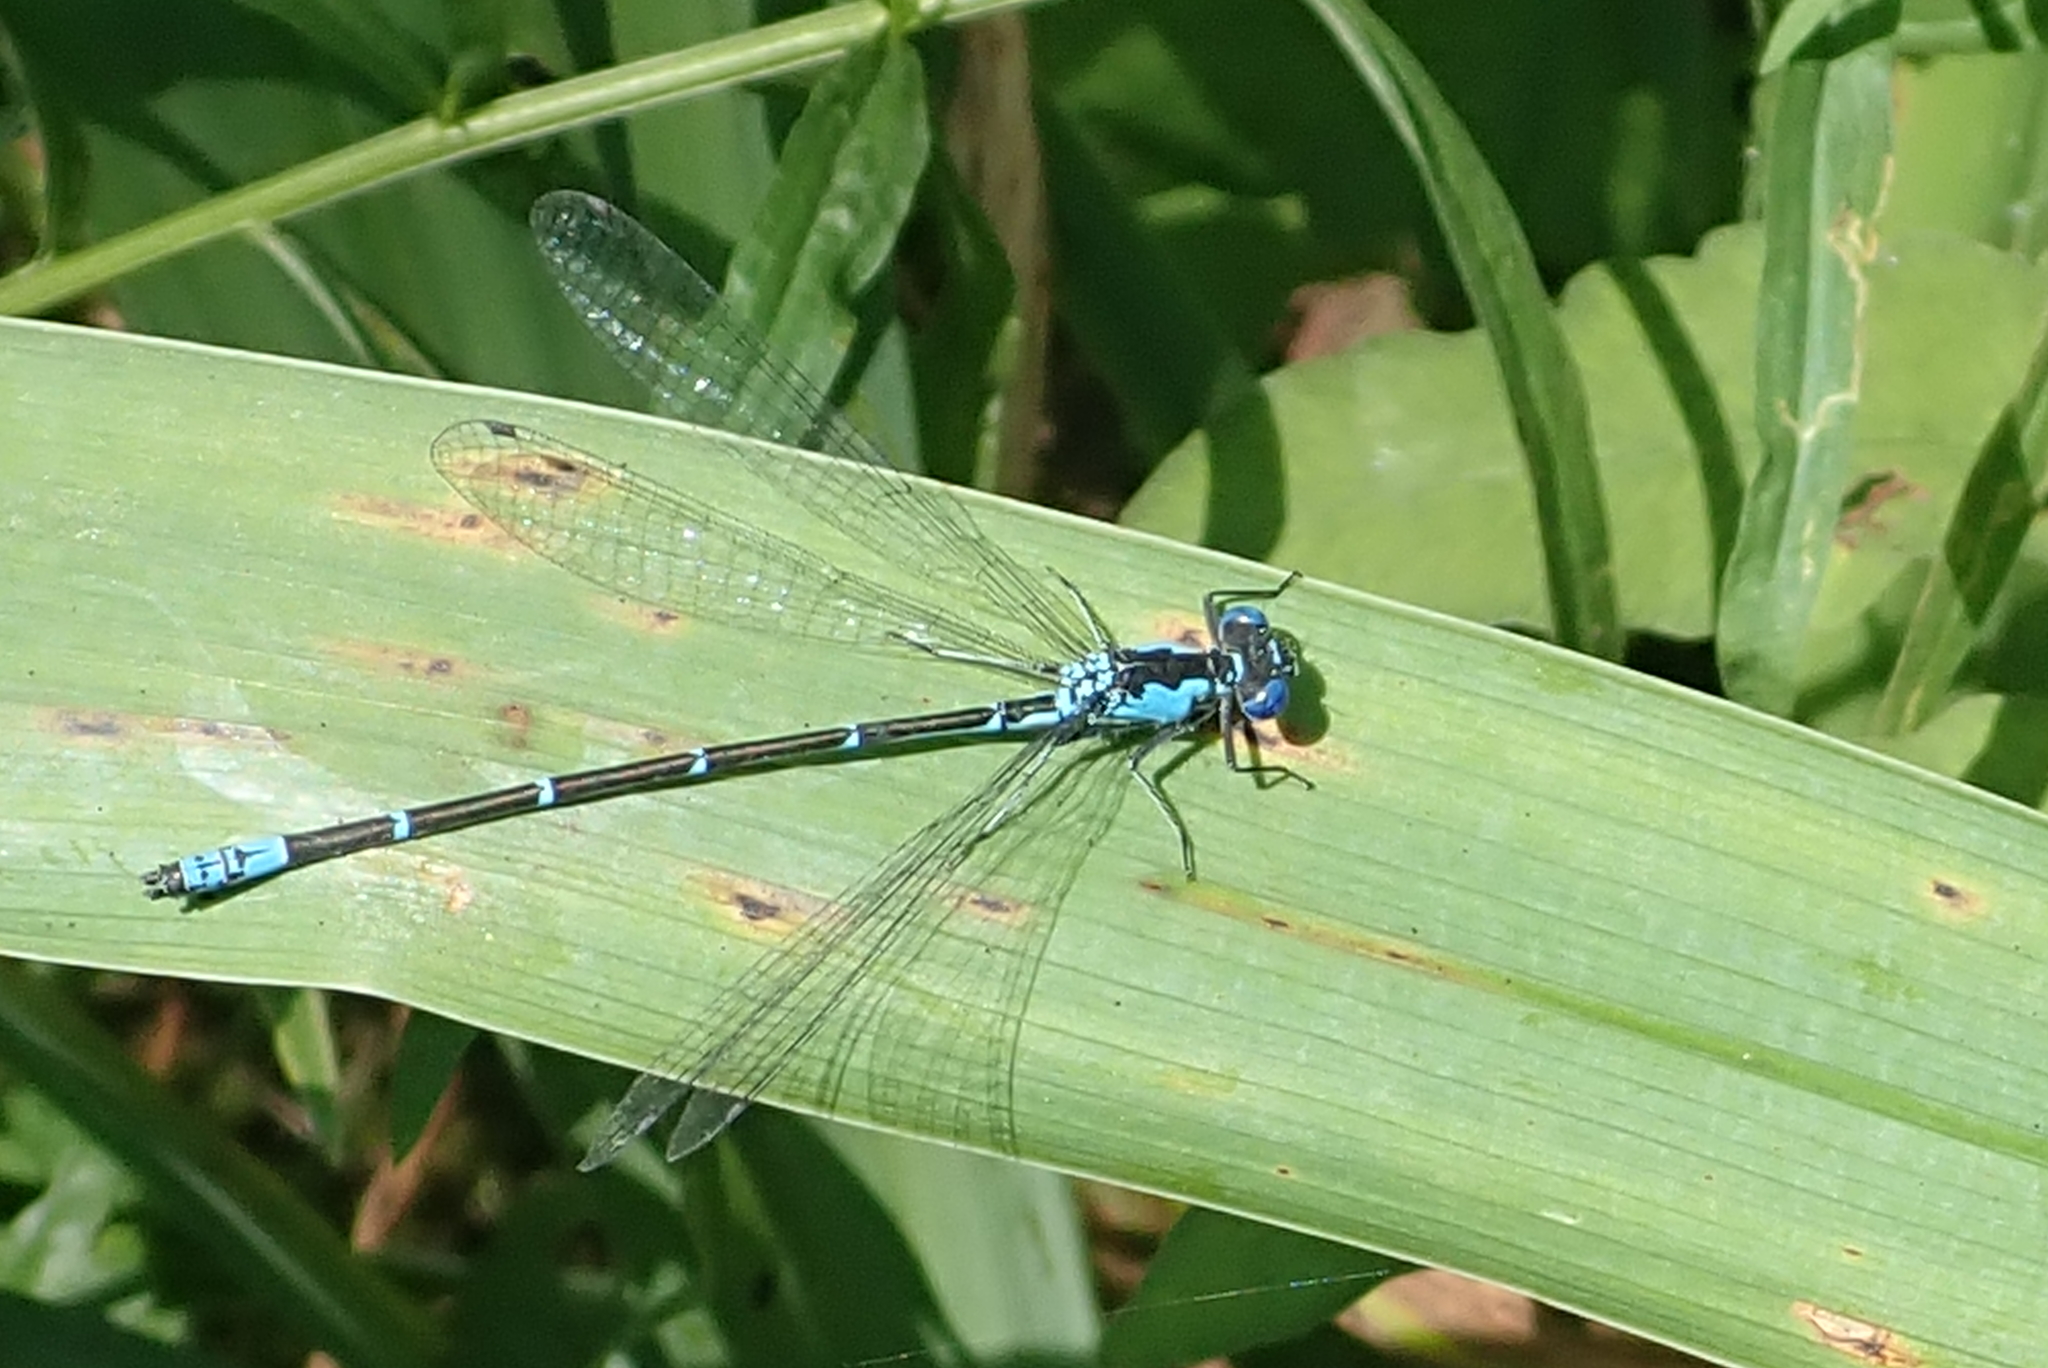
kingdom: Animalia
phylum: Arthropoda
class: Insecta
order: Odonata
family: Coenagrionidae
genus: Chromagrion
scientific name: Chromagrion conditum
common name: Aurora damsel
